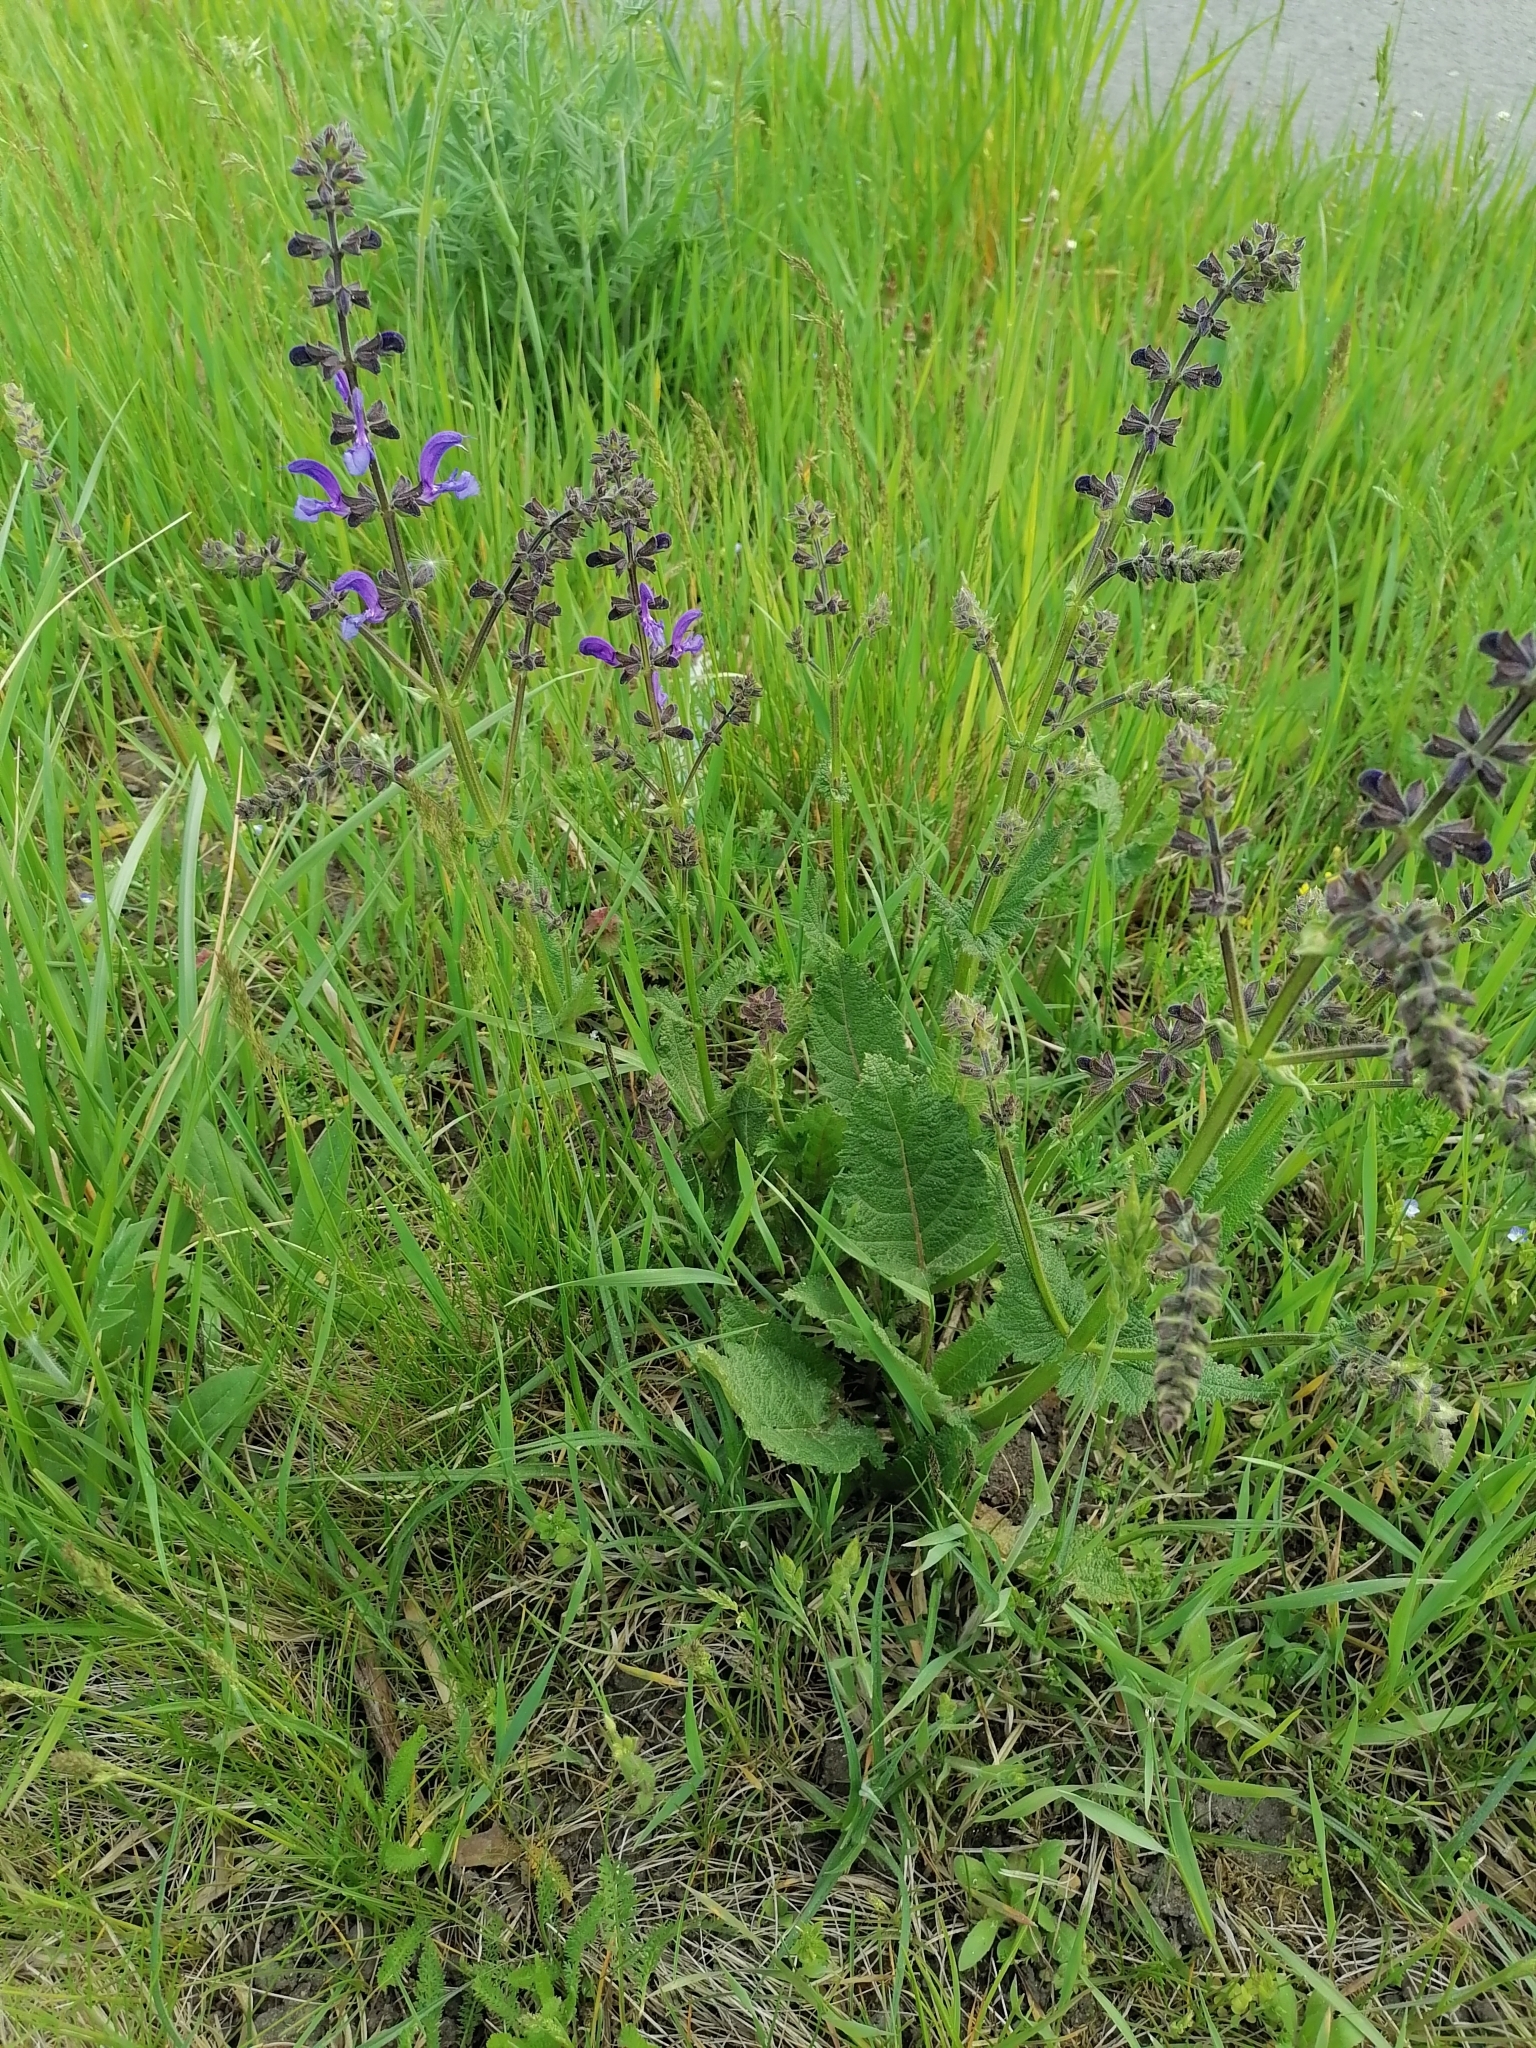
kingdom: Plantae
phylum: Tracheophyta
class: Magnoliopsida
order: Lamiales
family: Lamiaceae
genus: Salvia
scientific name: Salvia pratensis
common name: Meadow sage
